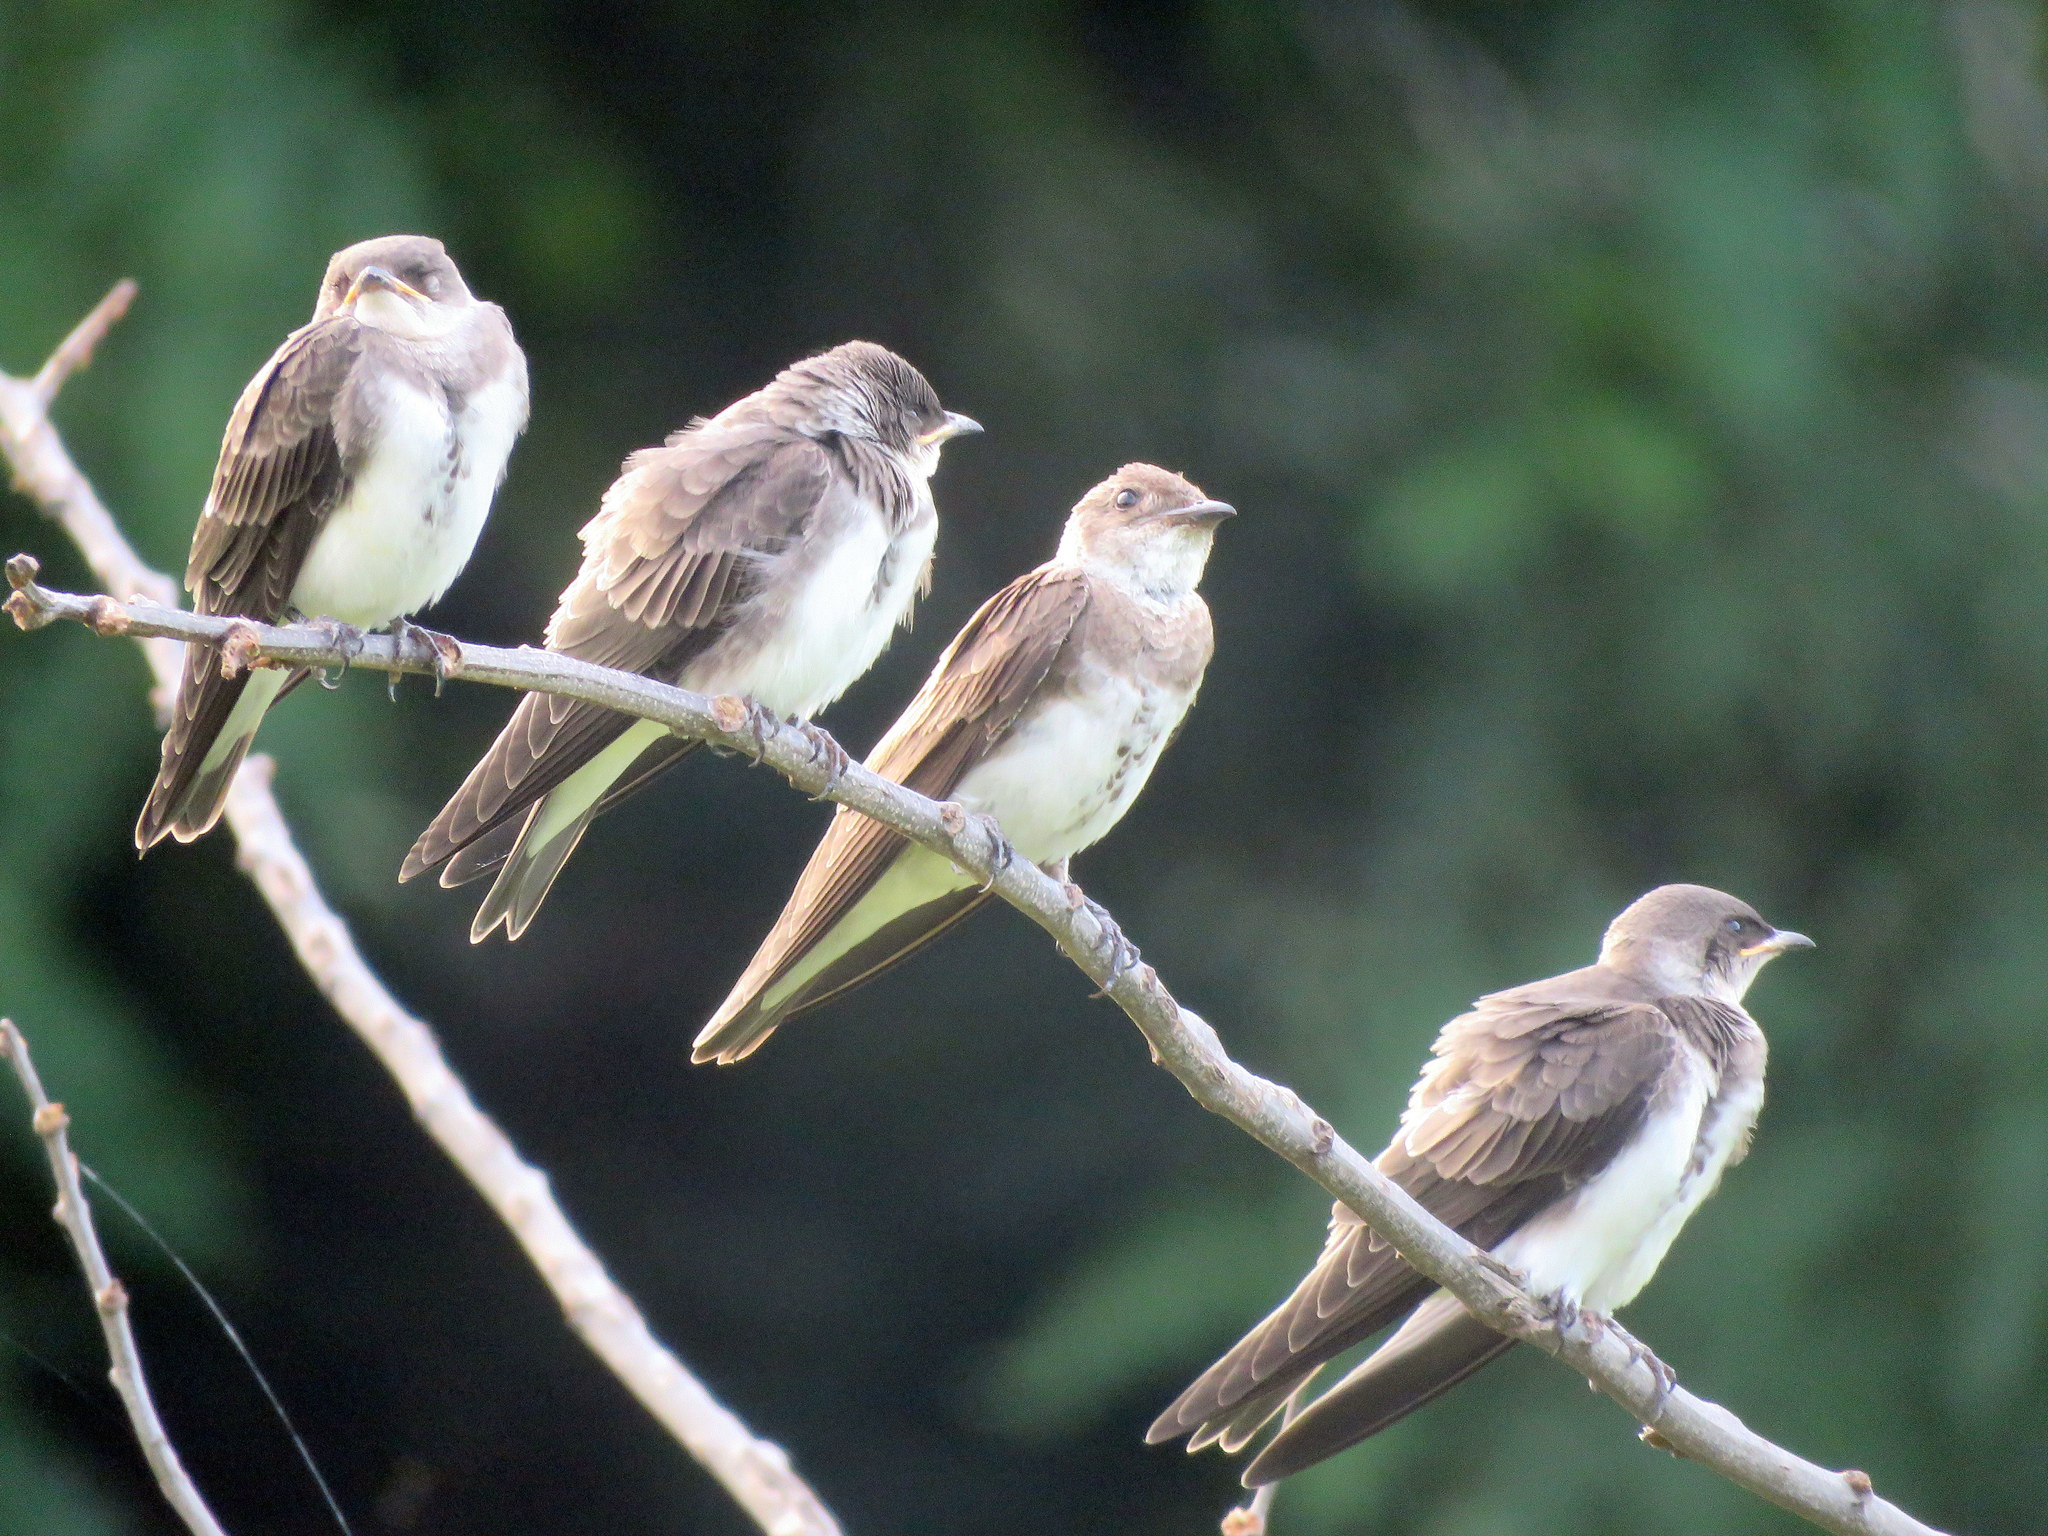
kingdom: Animalia
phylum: Chordata
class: Aves
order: Passeriformes
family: Hirundinidae
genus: Progne
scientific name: Progne tapera
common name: Brown-chested martin
